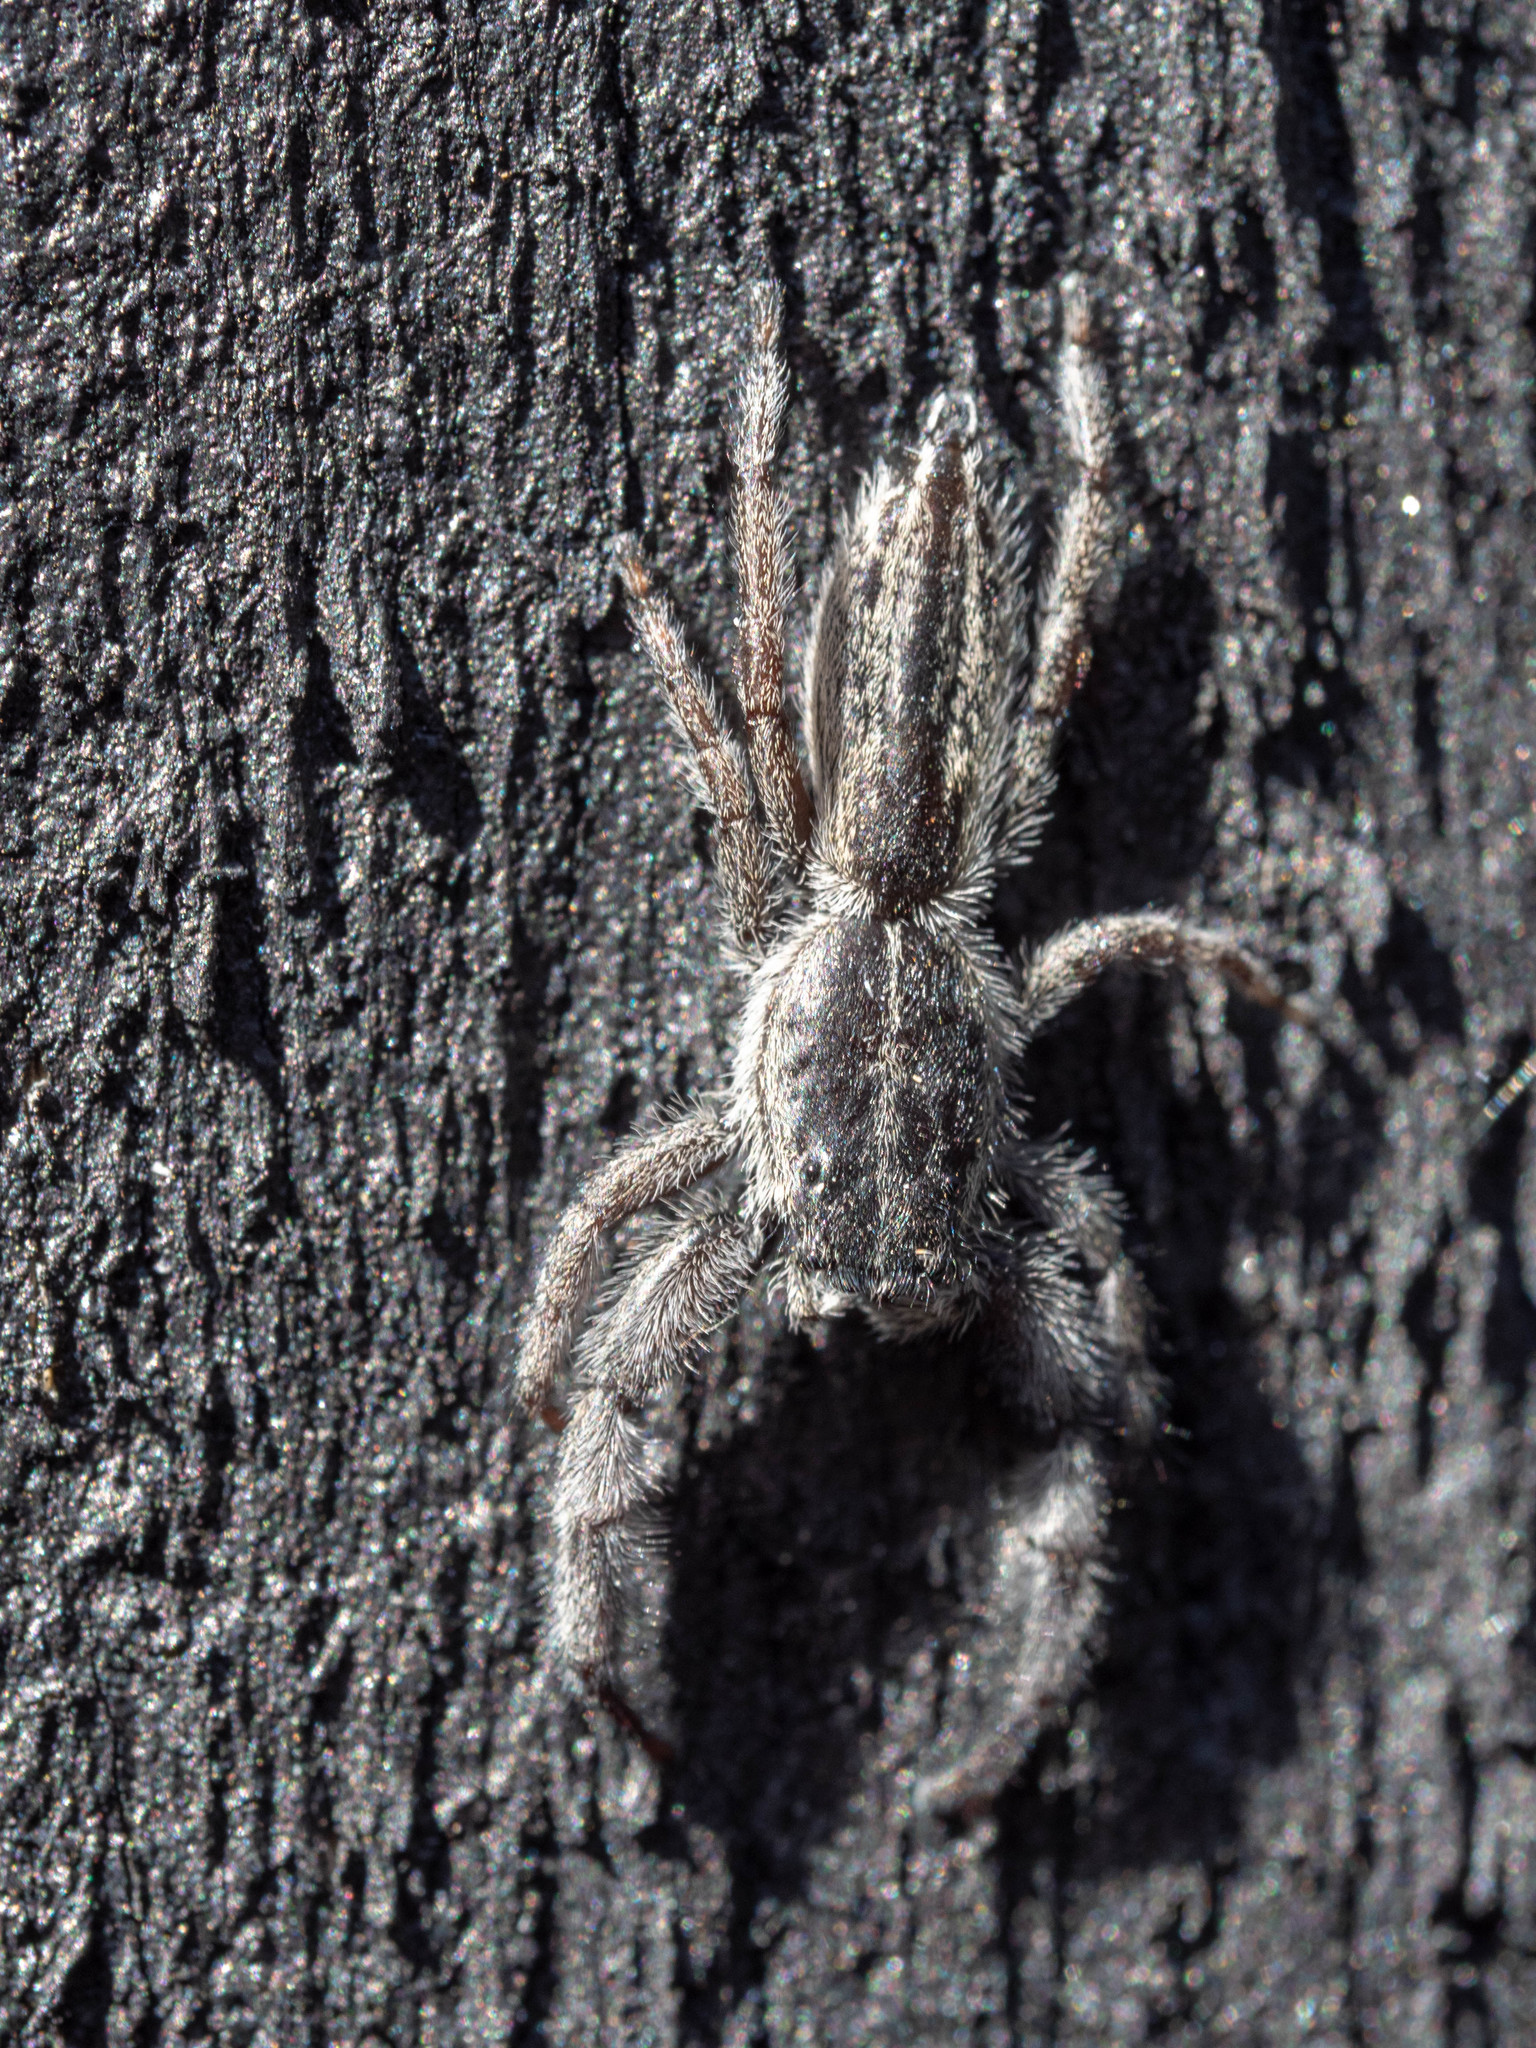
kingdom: Animalia
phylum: Arthropoda
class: Arachnida
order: Araneae
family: Salticidae
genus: Holoplatys
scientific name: Holoplatys apressus
